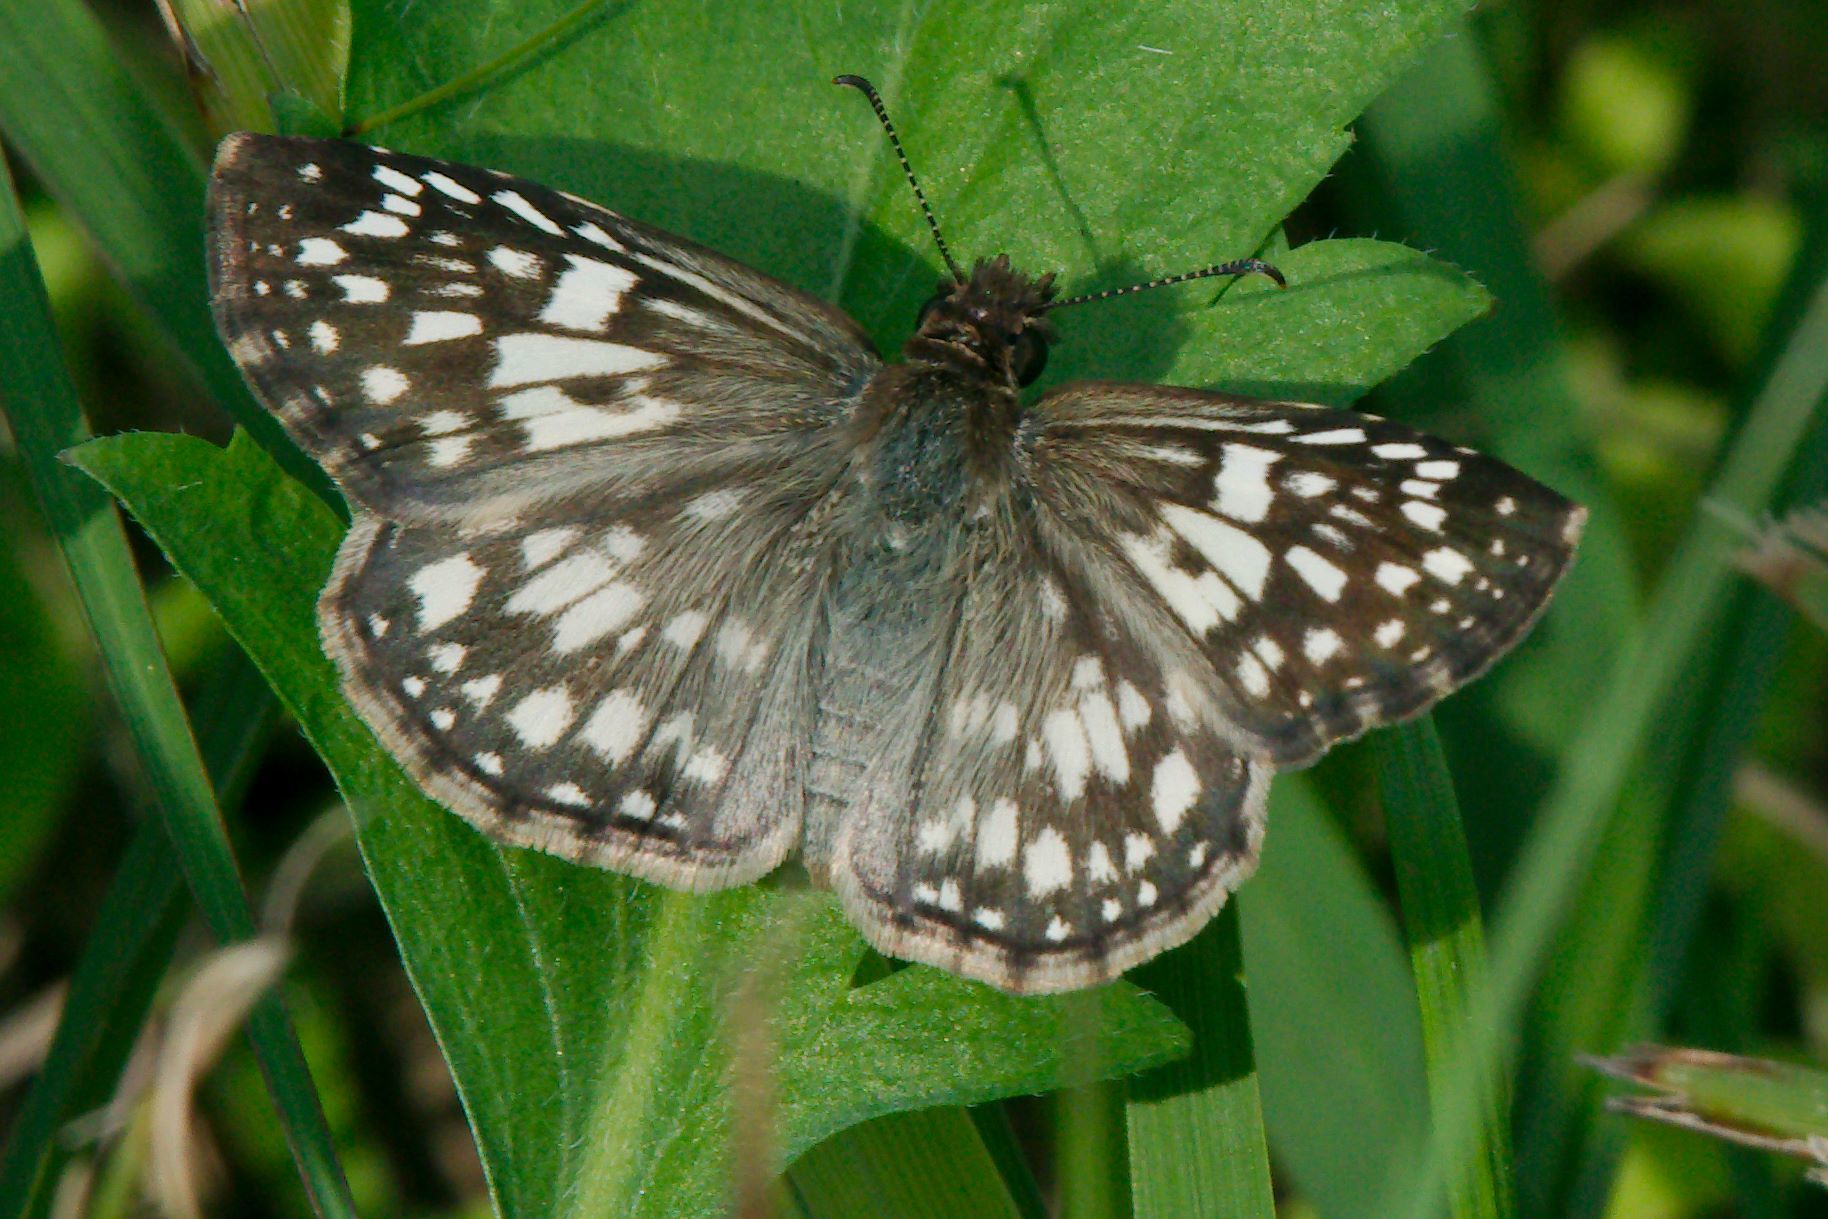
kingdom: Animalia
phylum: Arthropoda
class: Insecta
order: Lepidoptera
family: Hesperiidae
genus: Pyrgus
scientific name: Pyrgus oileus
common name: Tropical checkered-skipper
